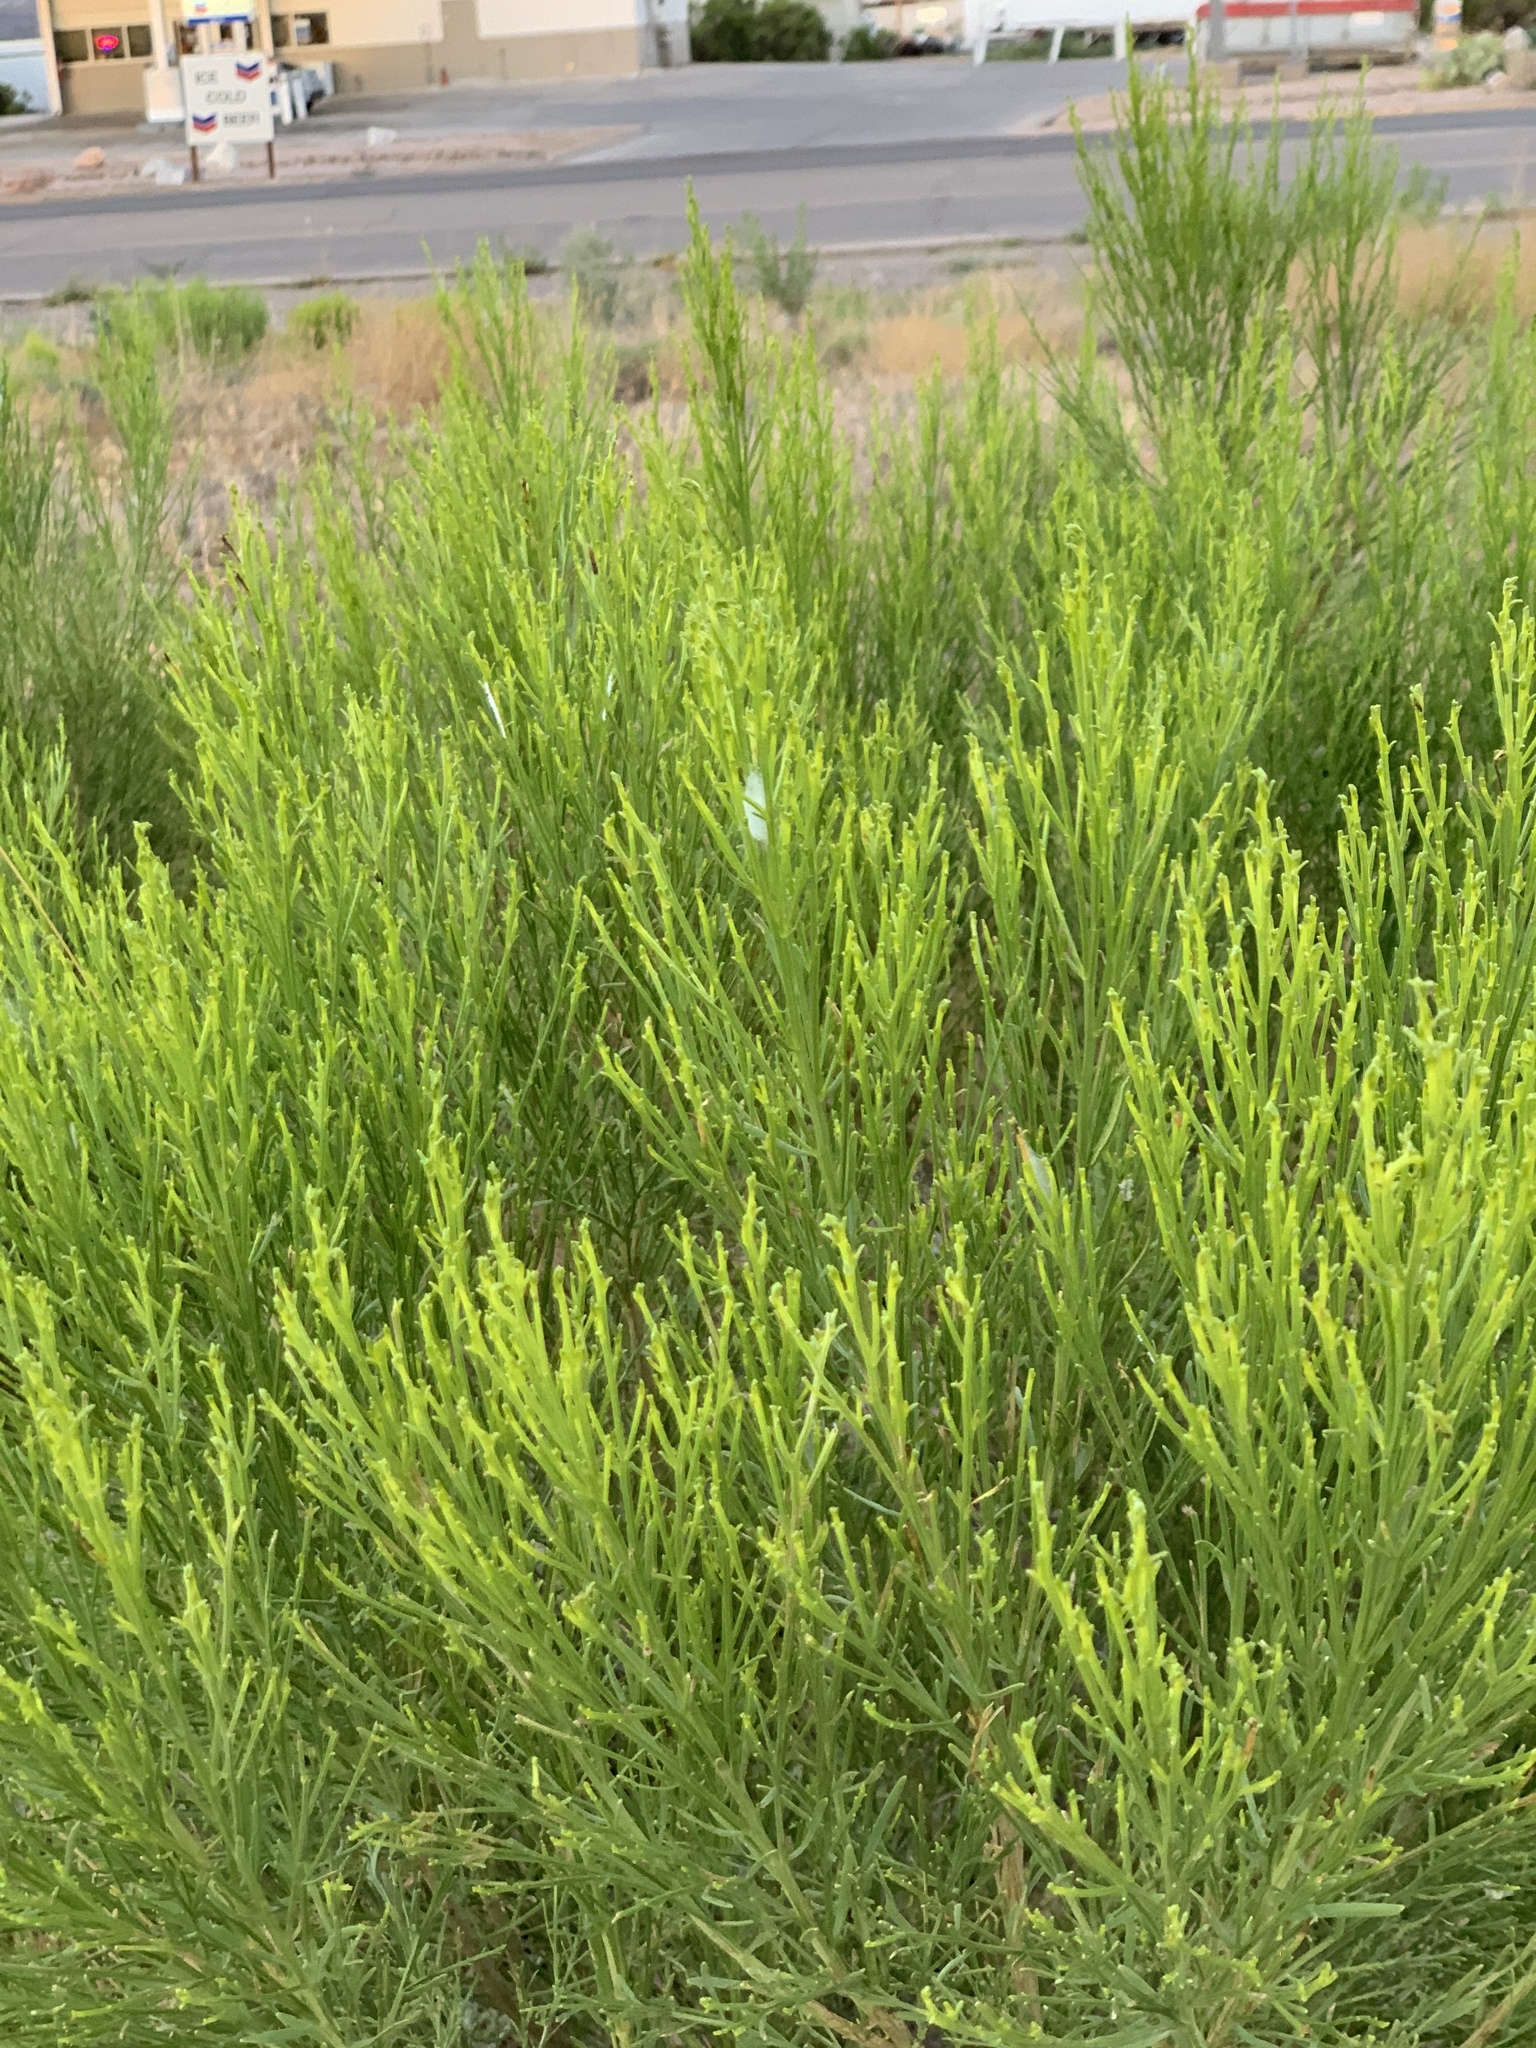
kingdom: Plantae
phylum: Tracheophyta
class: Magnoliopsida
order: Asterales
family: Asteraceae
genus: Baccharis
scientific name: Baccharis sarothroides
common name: Desert-broom
